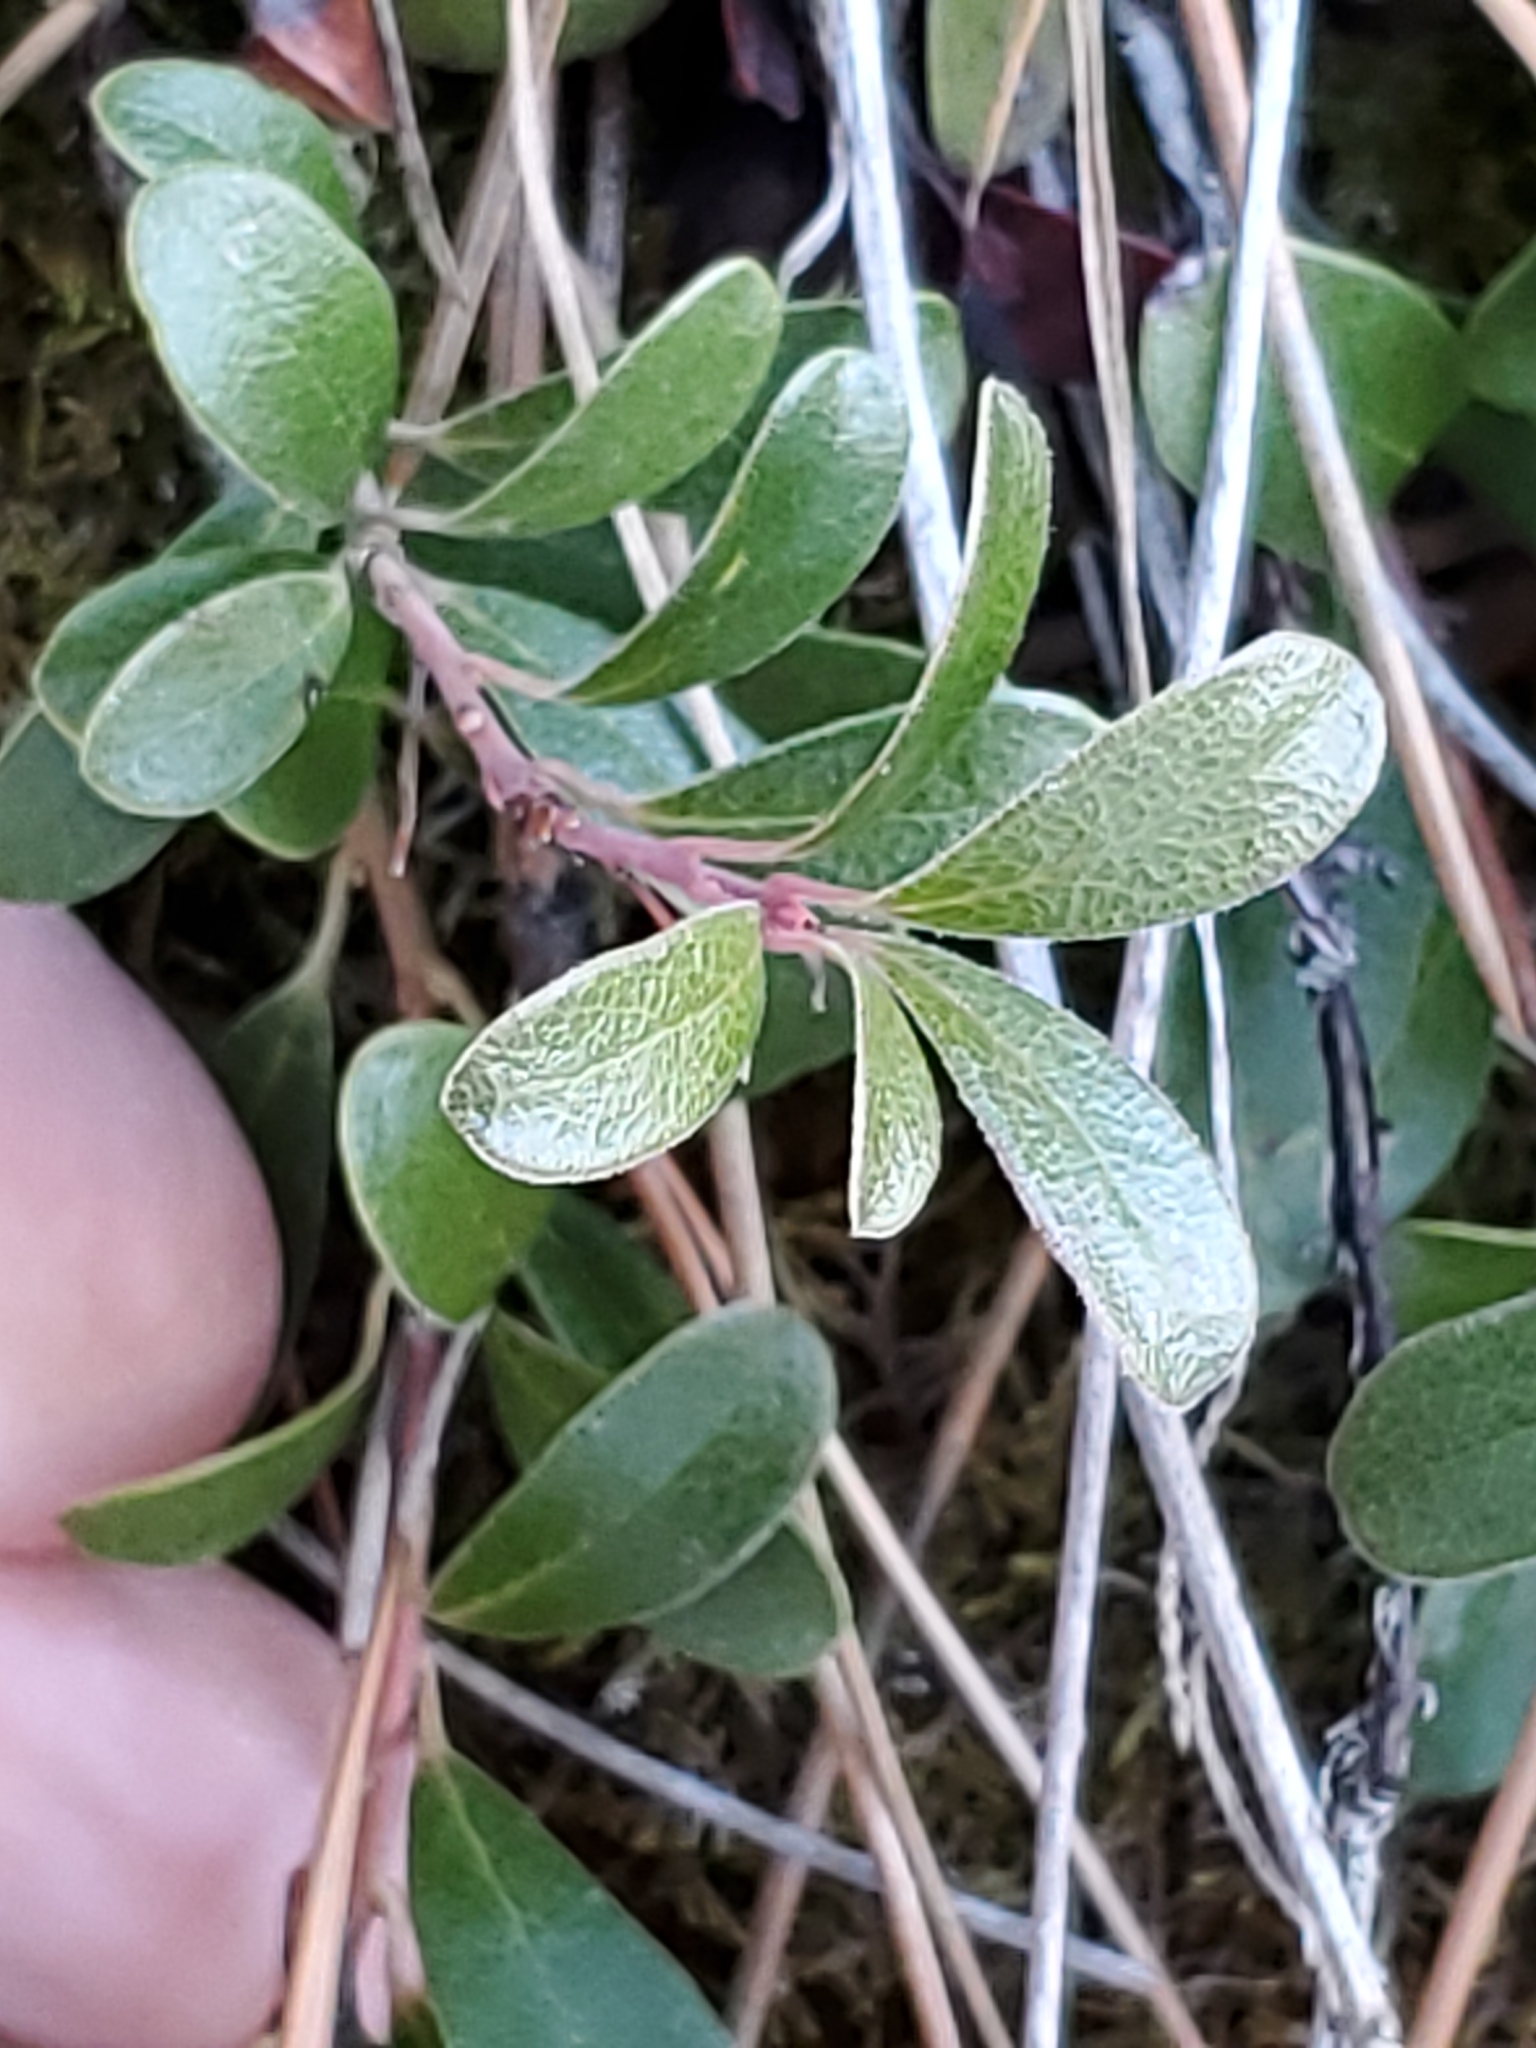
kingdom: Plantae
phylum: Tracheophyta
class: Magnoliopsida
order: Ericales
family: Ericaceae
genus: Arctostaphylos
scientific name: Arctostaphylos uva-ursi
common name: Bearberry
